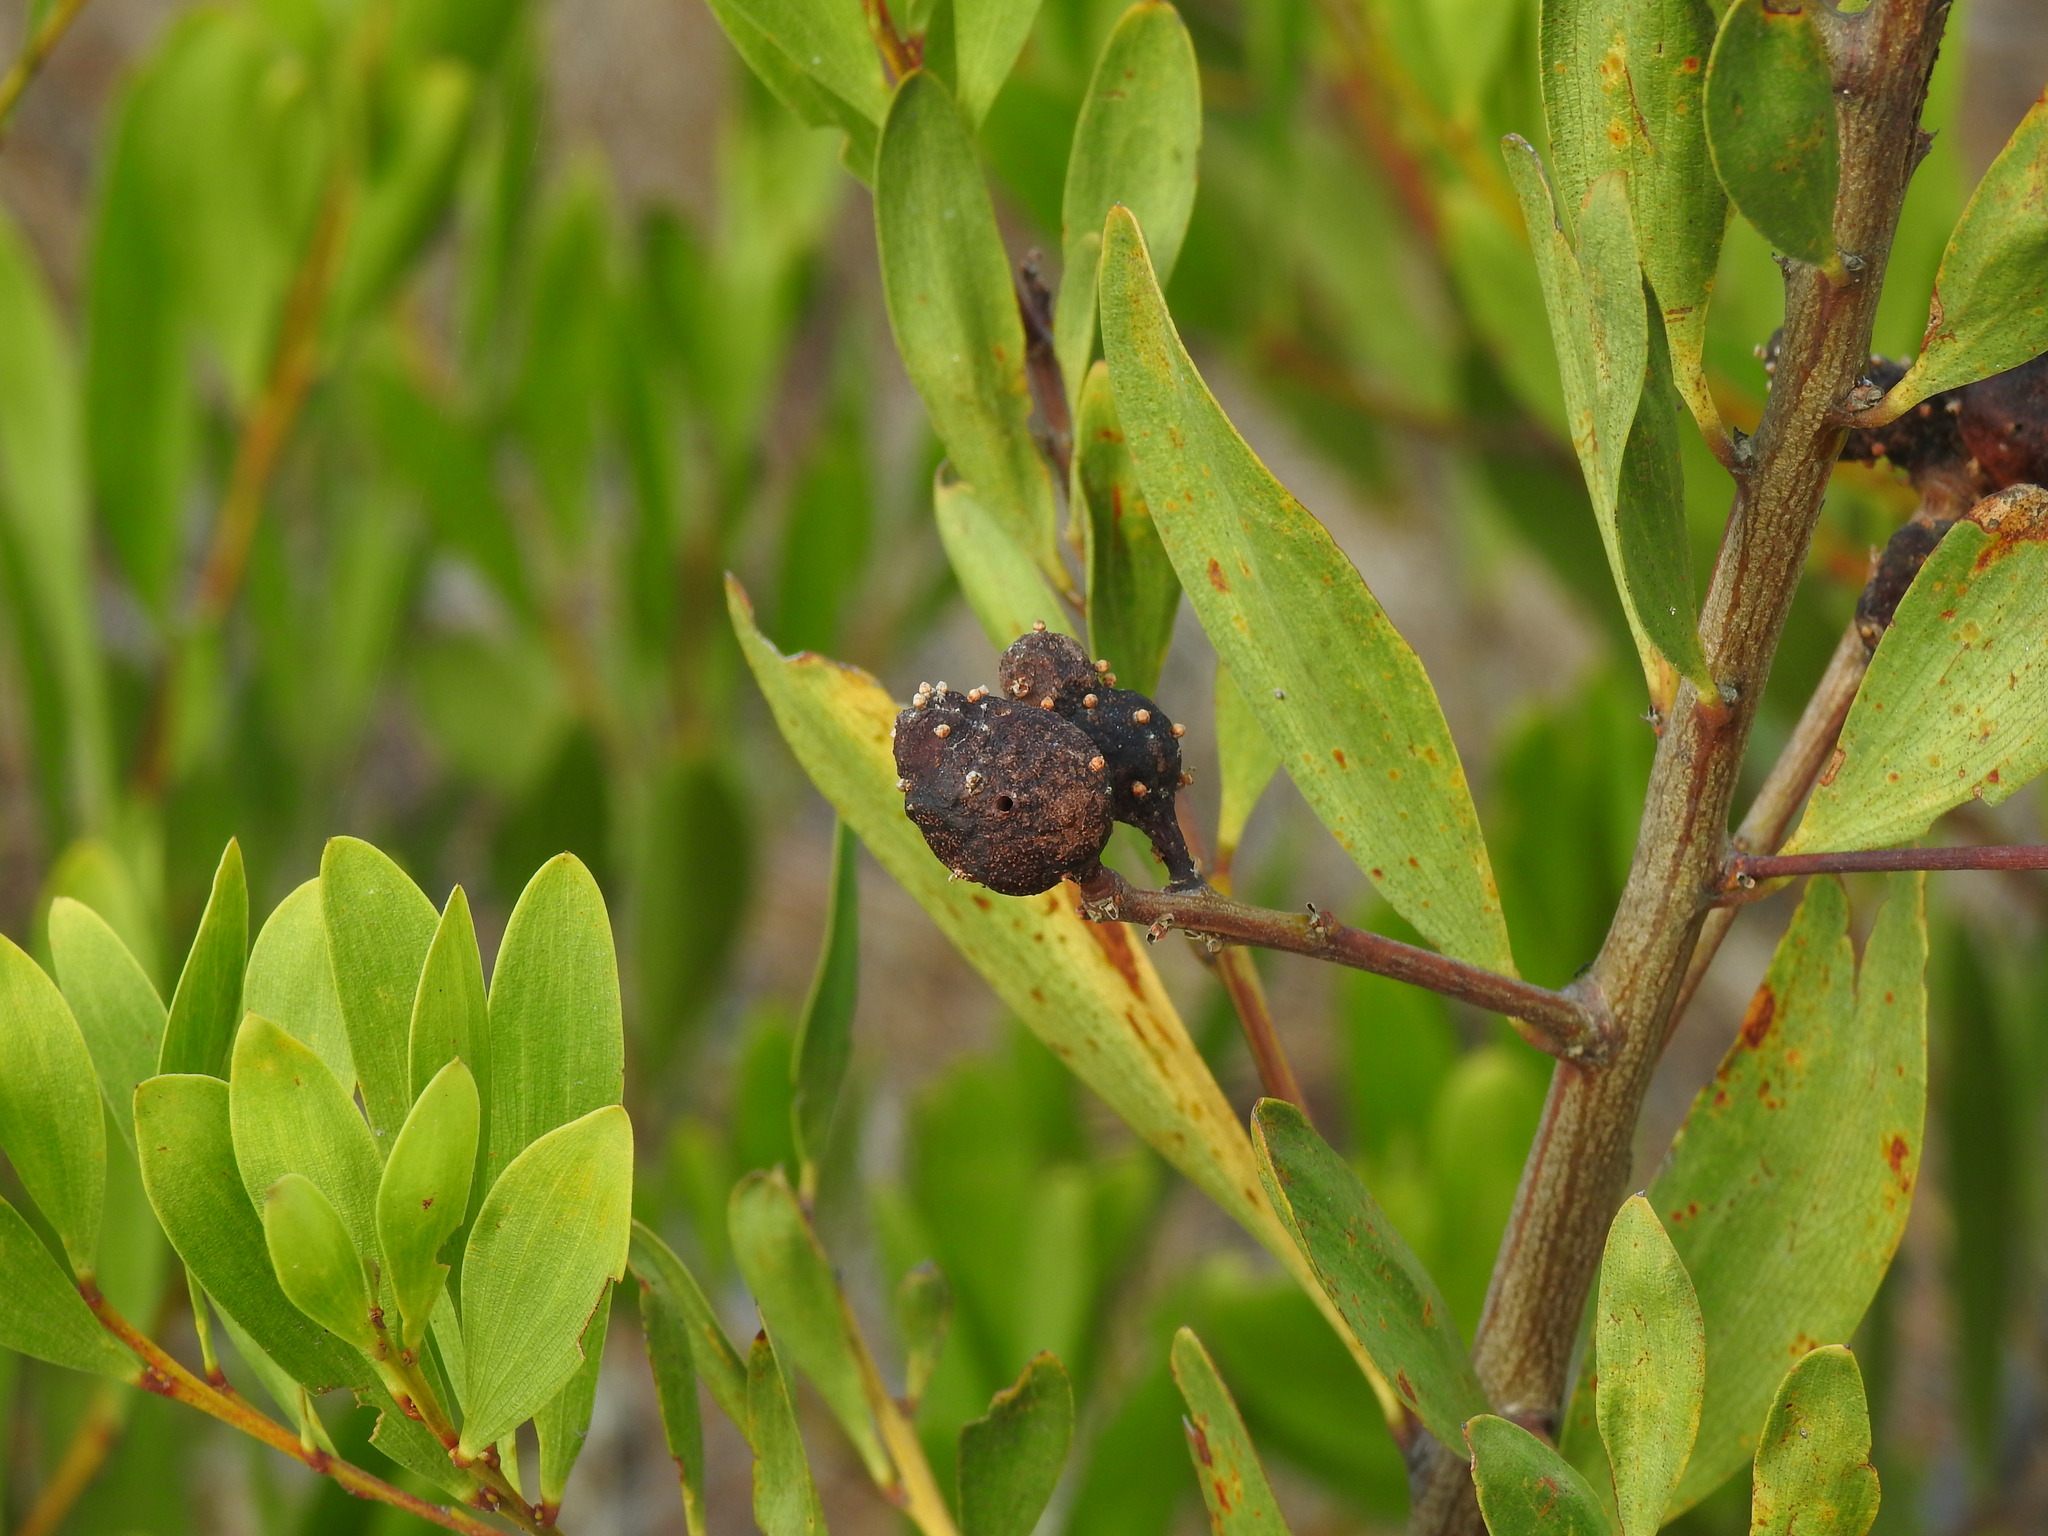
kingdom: Animalia
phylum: Arthropoda
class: Insecta
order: Hymenoptera
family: Pteromalidae
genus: Trichilogaster
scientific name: Trichilogaster acaciaelongifoliae
